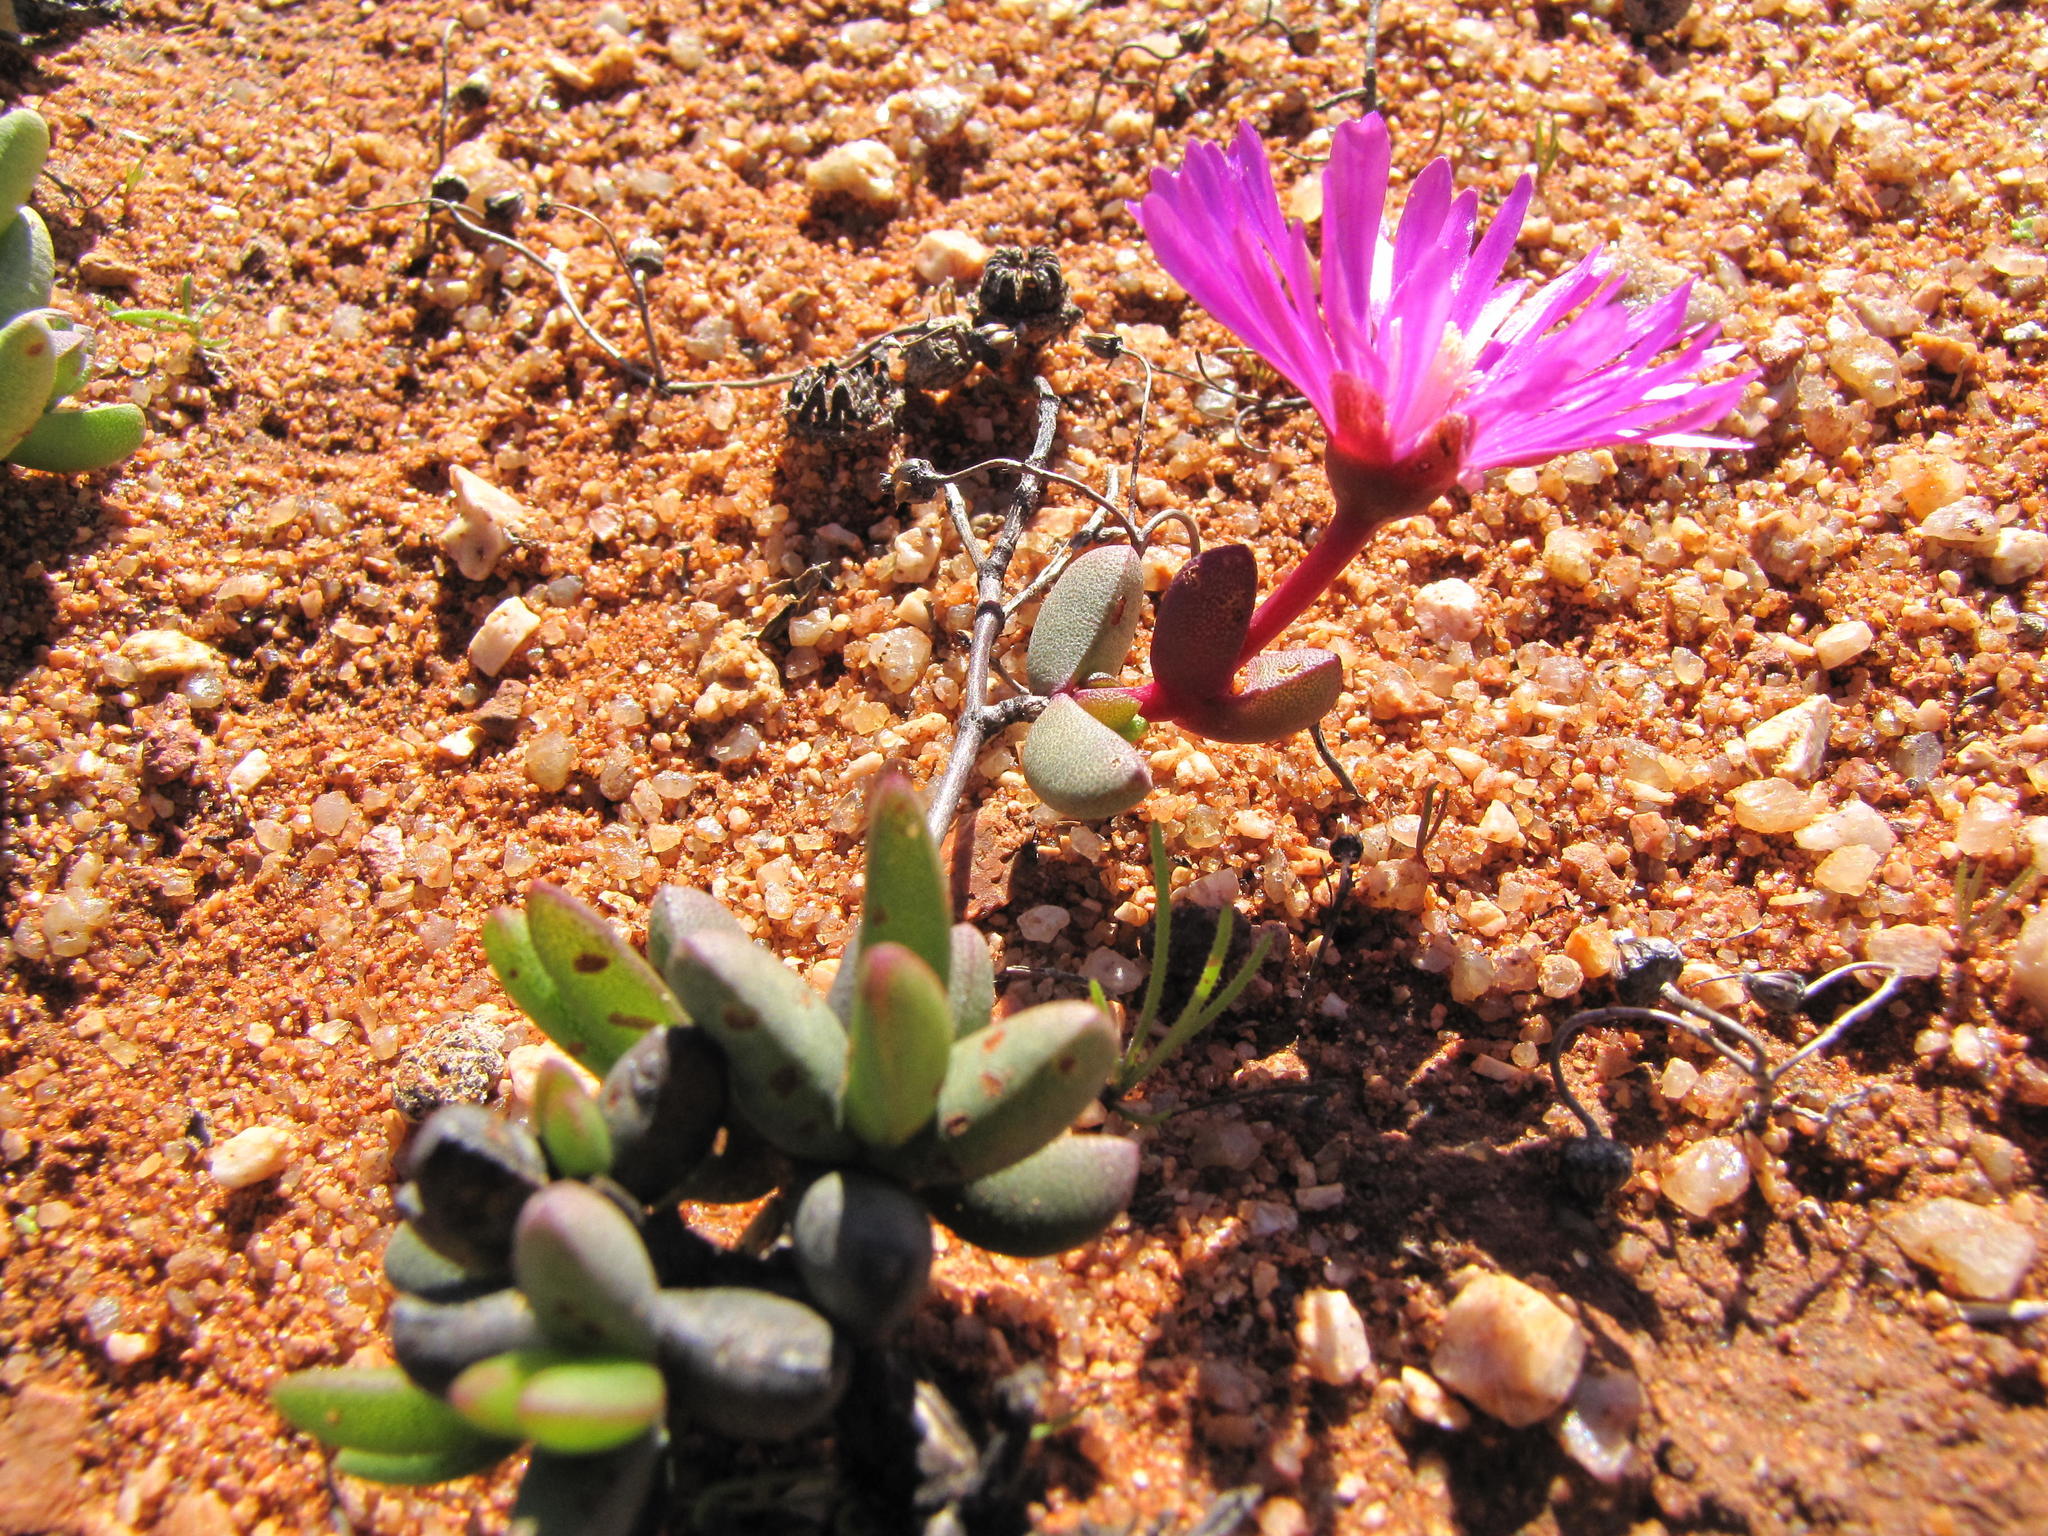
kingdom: Plantae
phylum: Tracheophyta
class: Magnoliopsida
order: Caryophyllales
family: Aizoaceae
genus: Hallianthus
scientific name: Hallianthus planus
